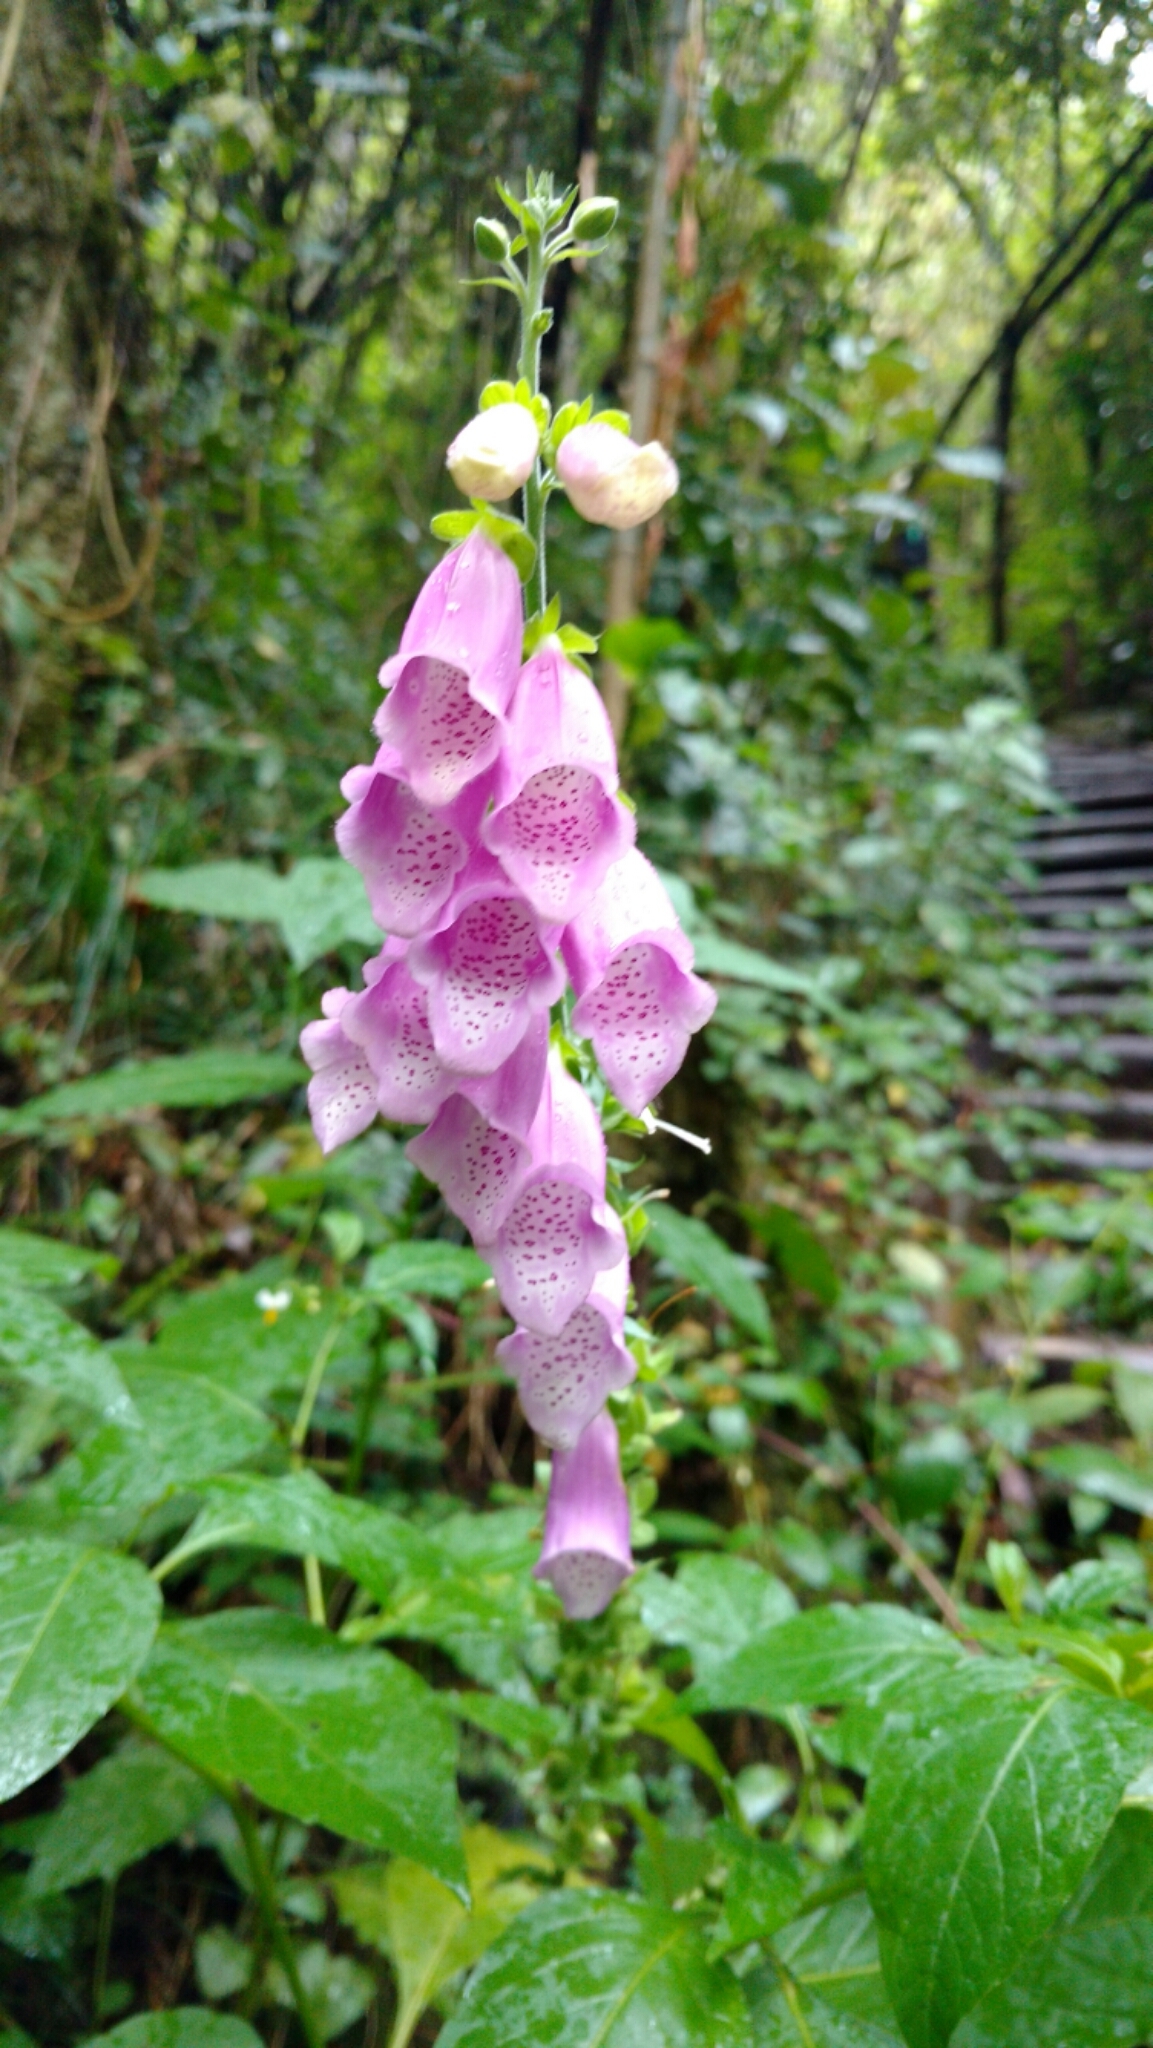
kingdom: Plantae
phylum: Tracheophyta
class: Magnoliopsida
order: Lamiales
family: Plantaginaceae
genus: Digitalis
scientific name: Digitalis purpurea
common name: Foxglove
